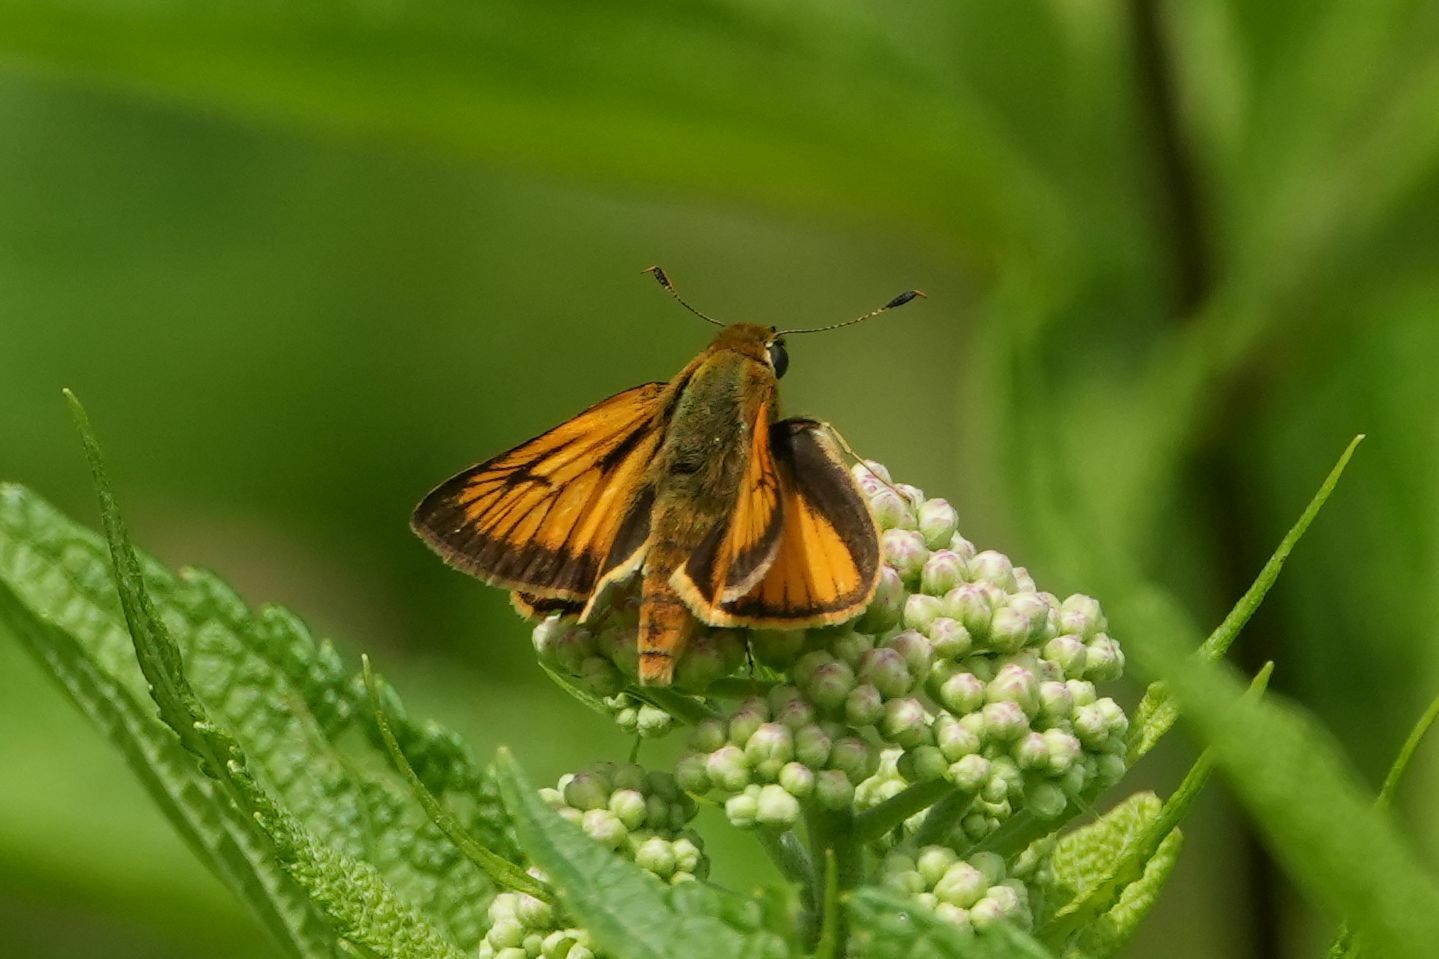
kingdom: Animalia
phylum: Arthropoda
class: Insecta
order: Lepidoptera
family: Hesperiidae
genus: Atrytone
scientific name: Atrytone delaware
